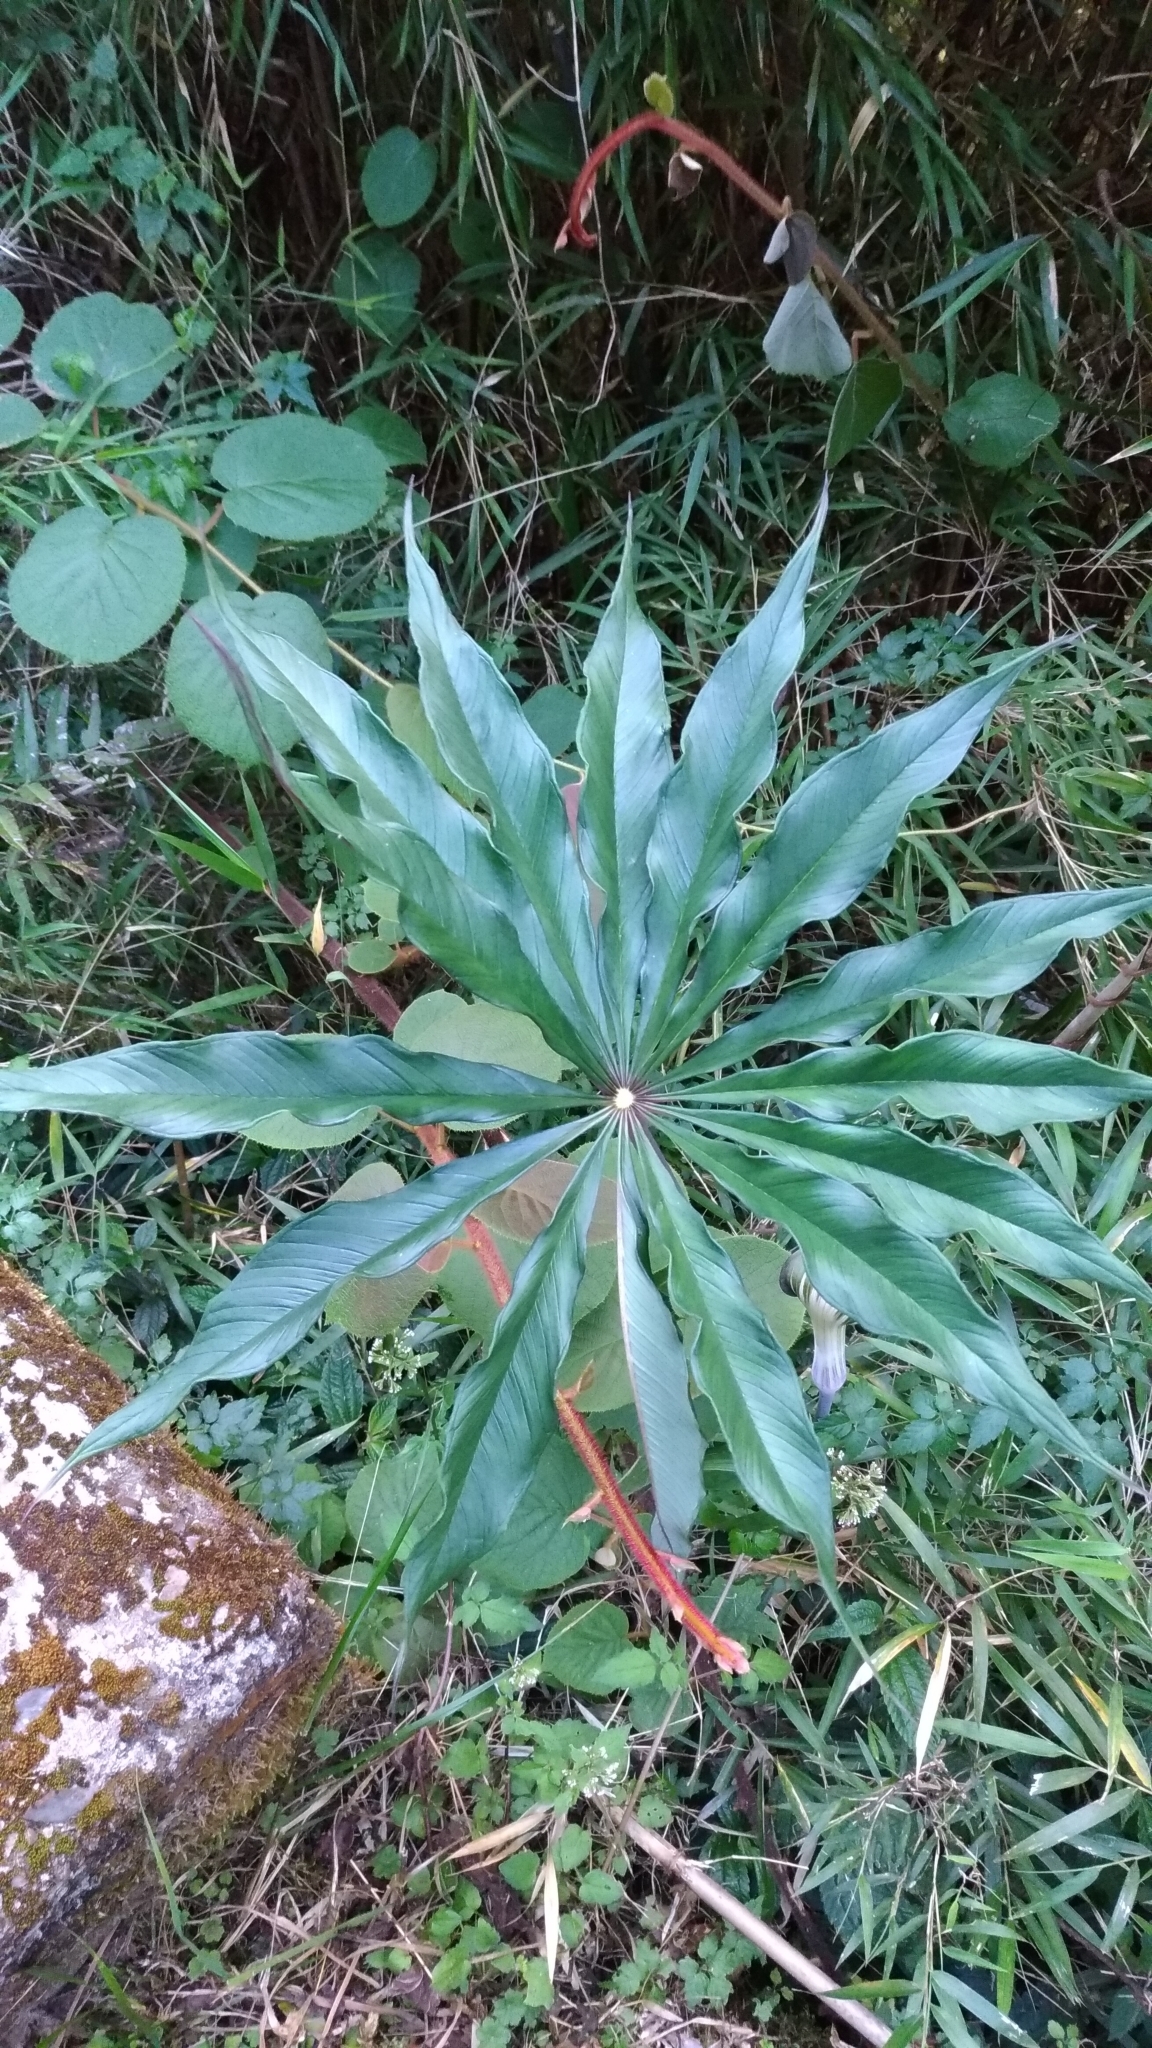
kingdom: Plantae
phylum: Tracheophyta
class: Liliopsida
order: Alismatales
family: Araceae
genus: Arisaema
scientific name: Arisaema formosanum
